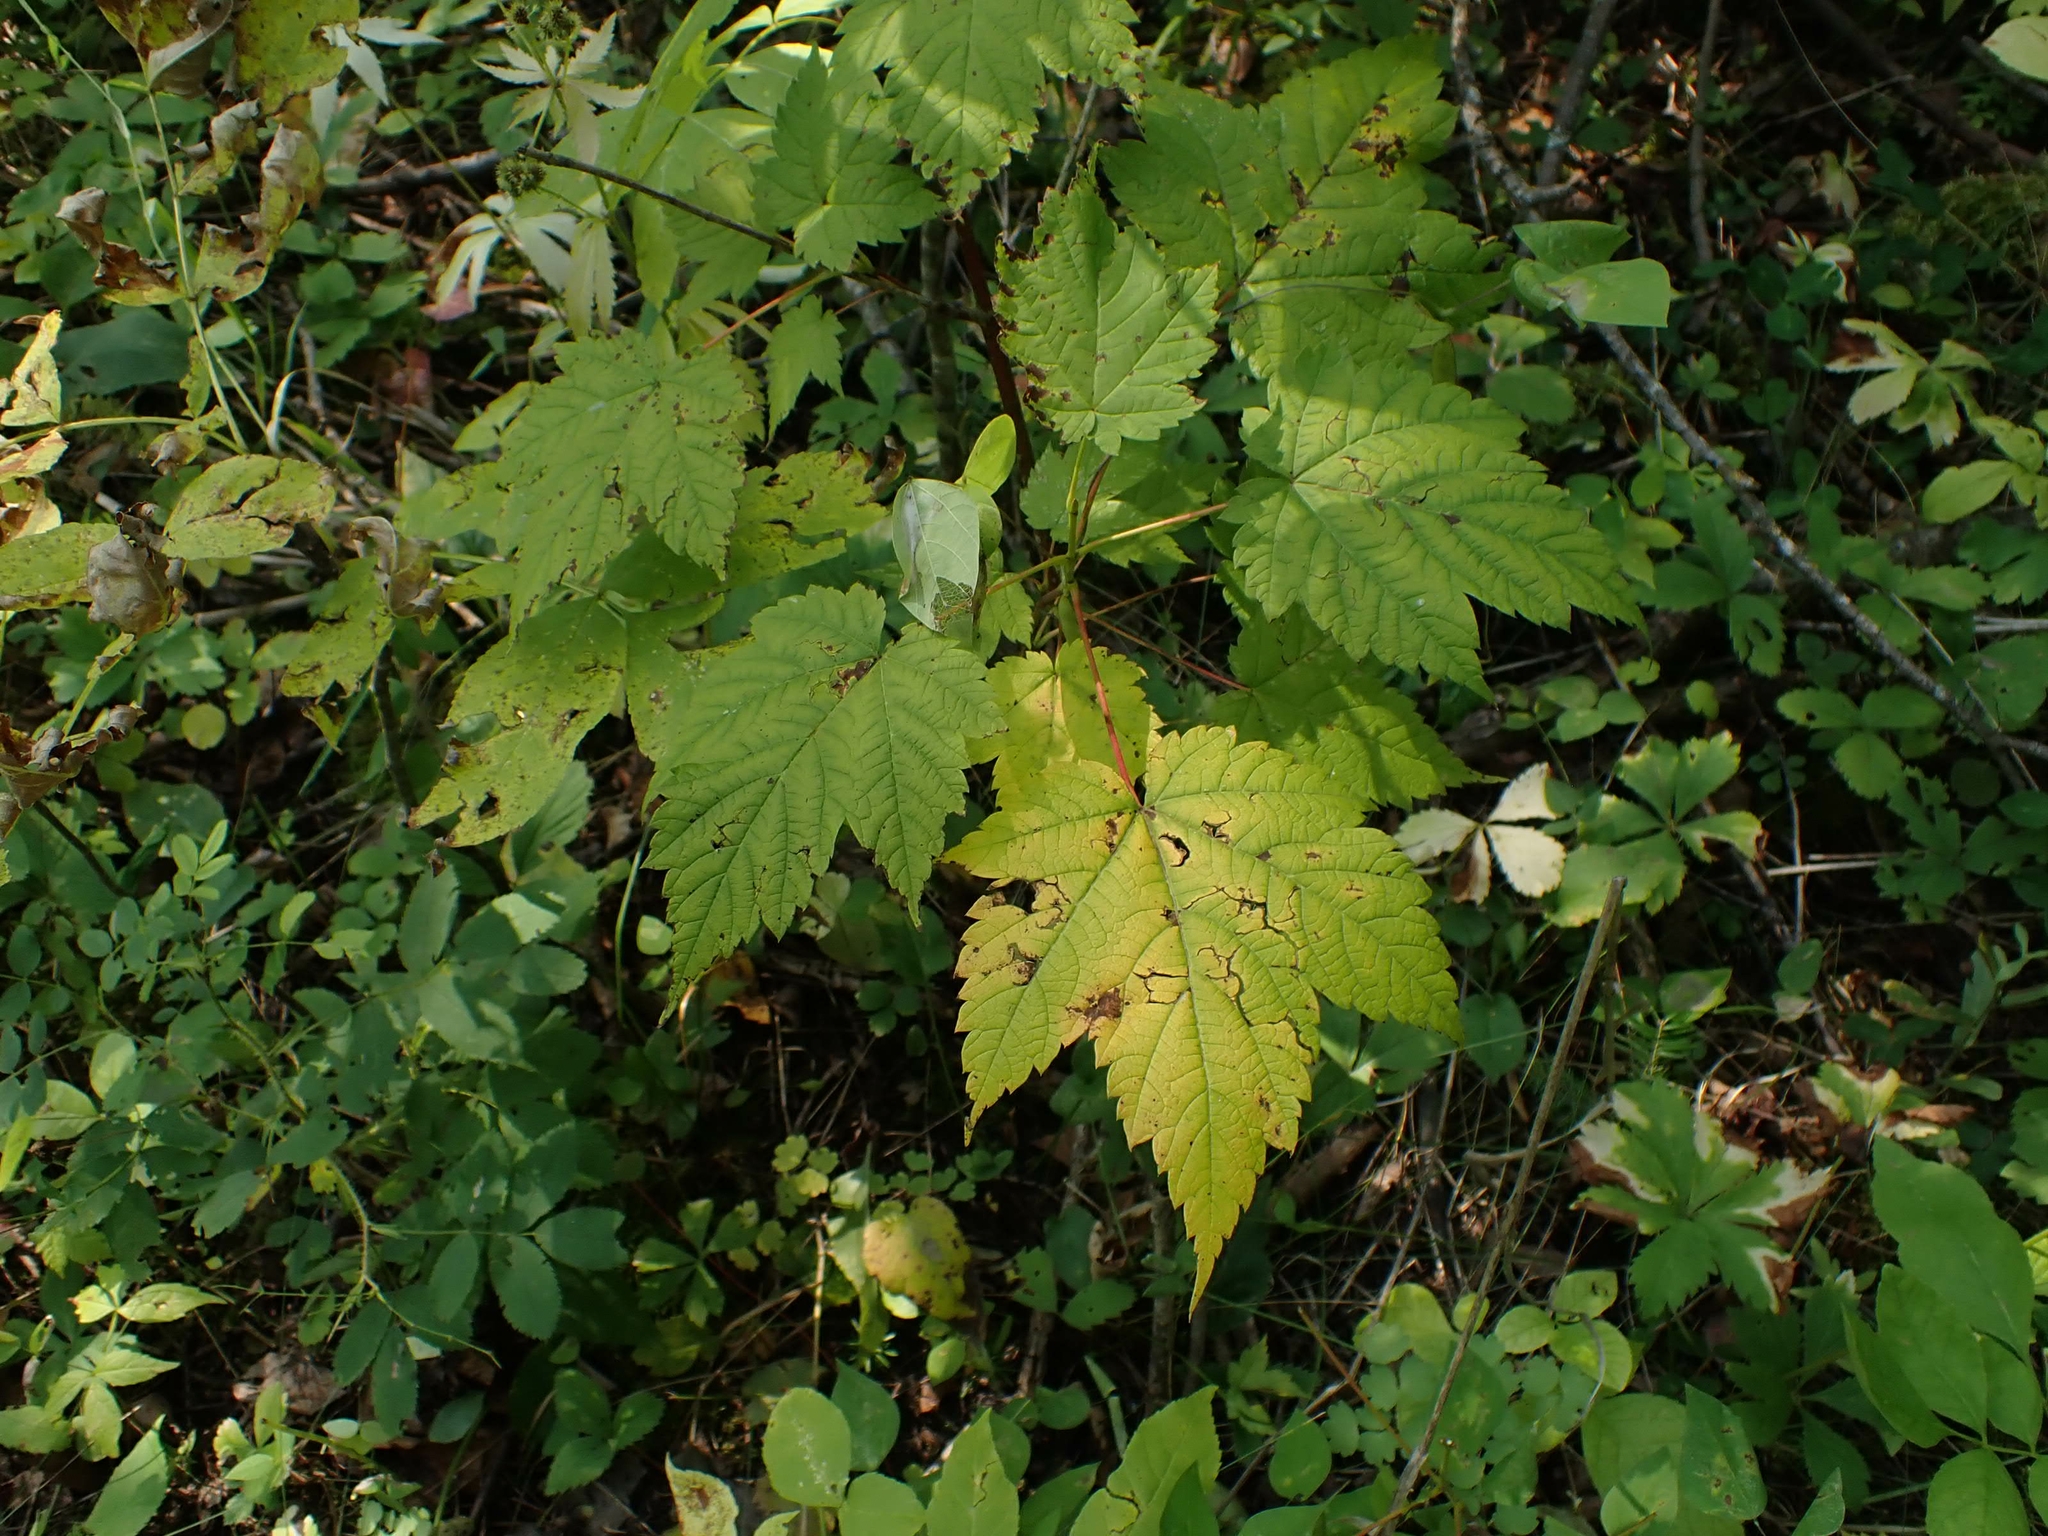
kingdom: Plantae
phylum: Tracheophyta
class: Magnoliopsida
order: Sapindales
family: Sapindaceae
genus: Acer
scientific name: Acer spicatum
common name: Mountain maple
